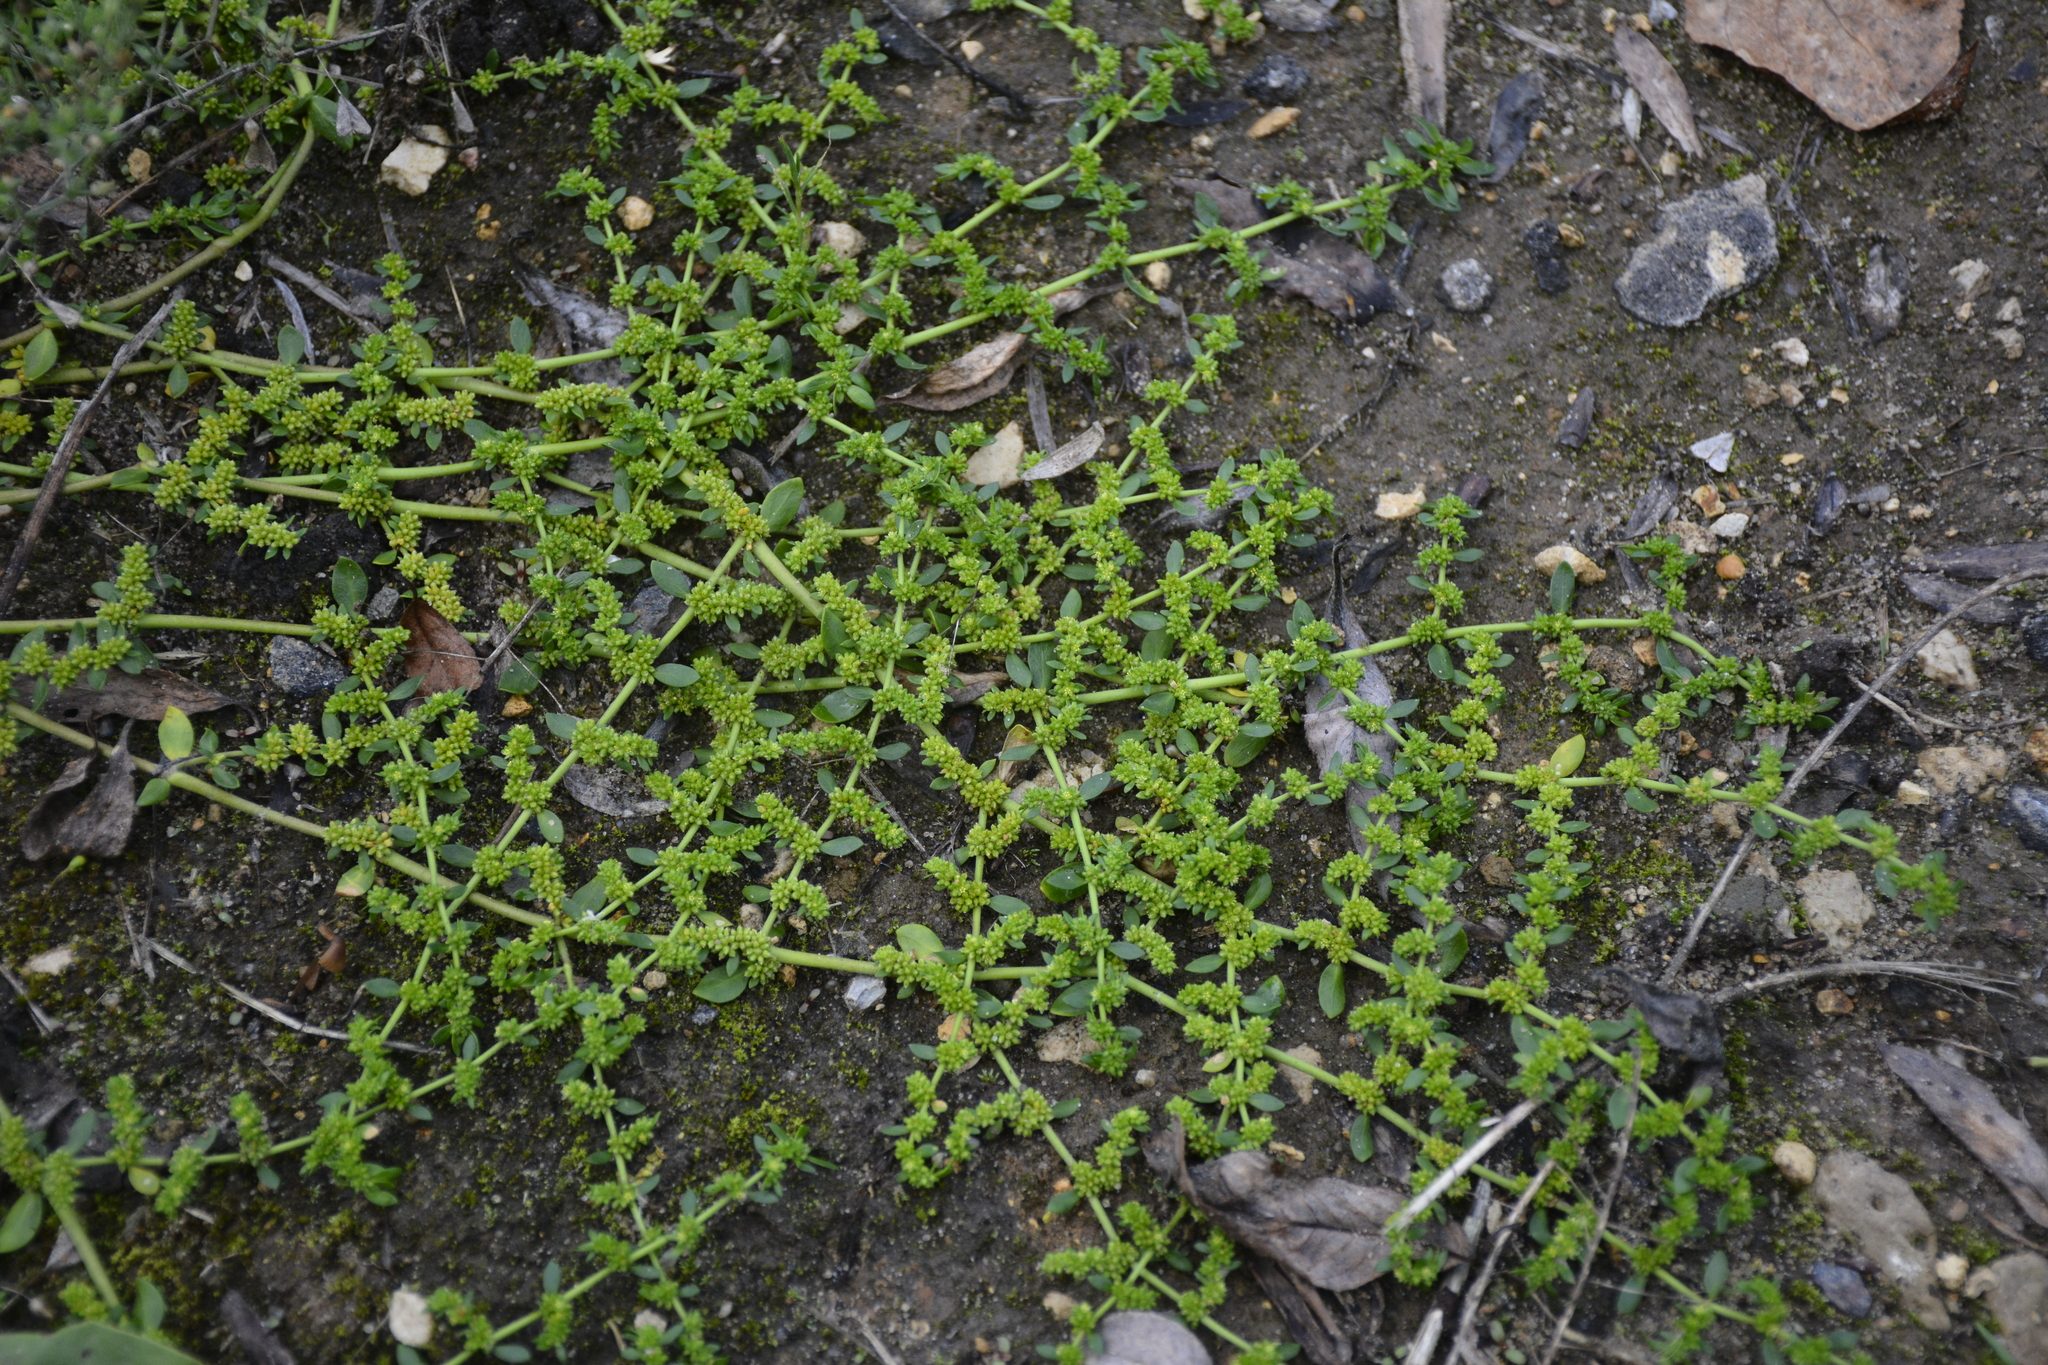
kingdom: Plantae
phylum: Tracheophyta
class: Magnoliopsida
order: Caryophyllales
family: Caryophyllaceae
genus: Herniaria
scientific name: Herniaria glabra
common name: Smooth rupturewort
